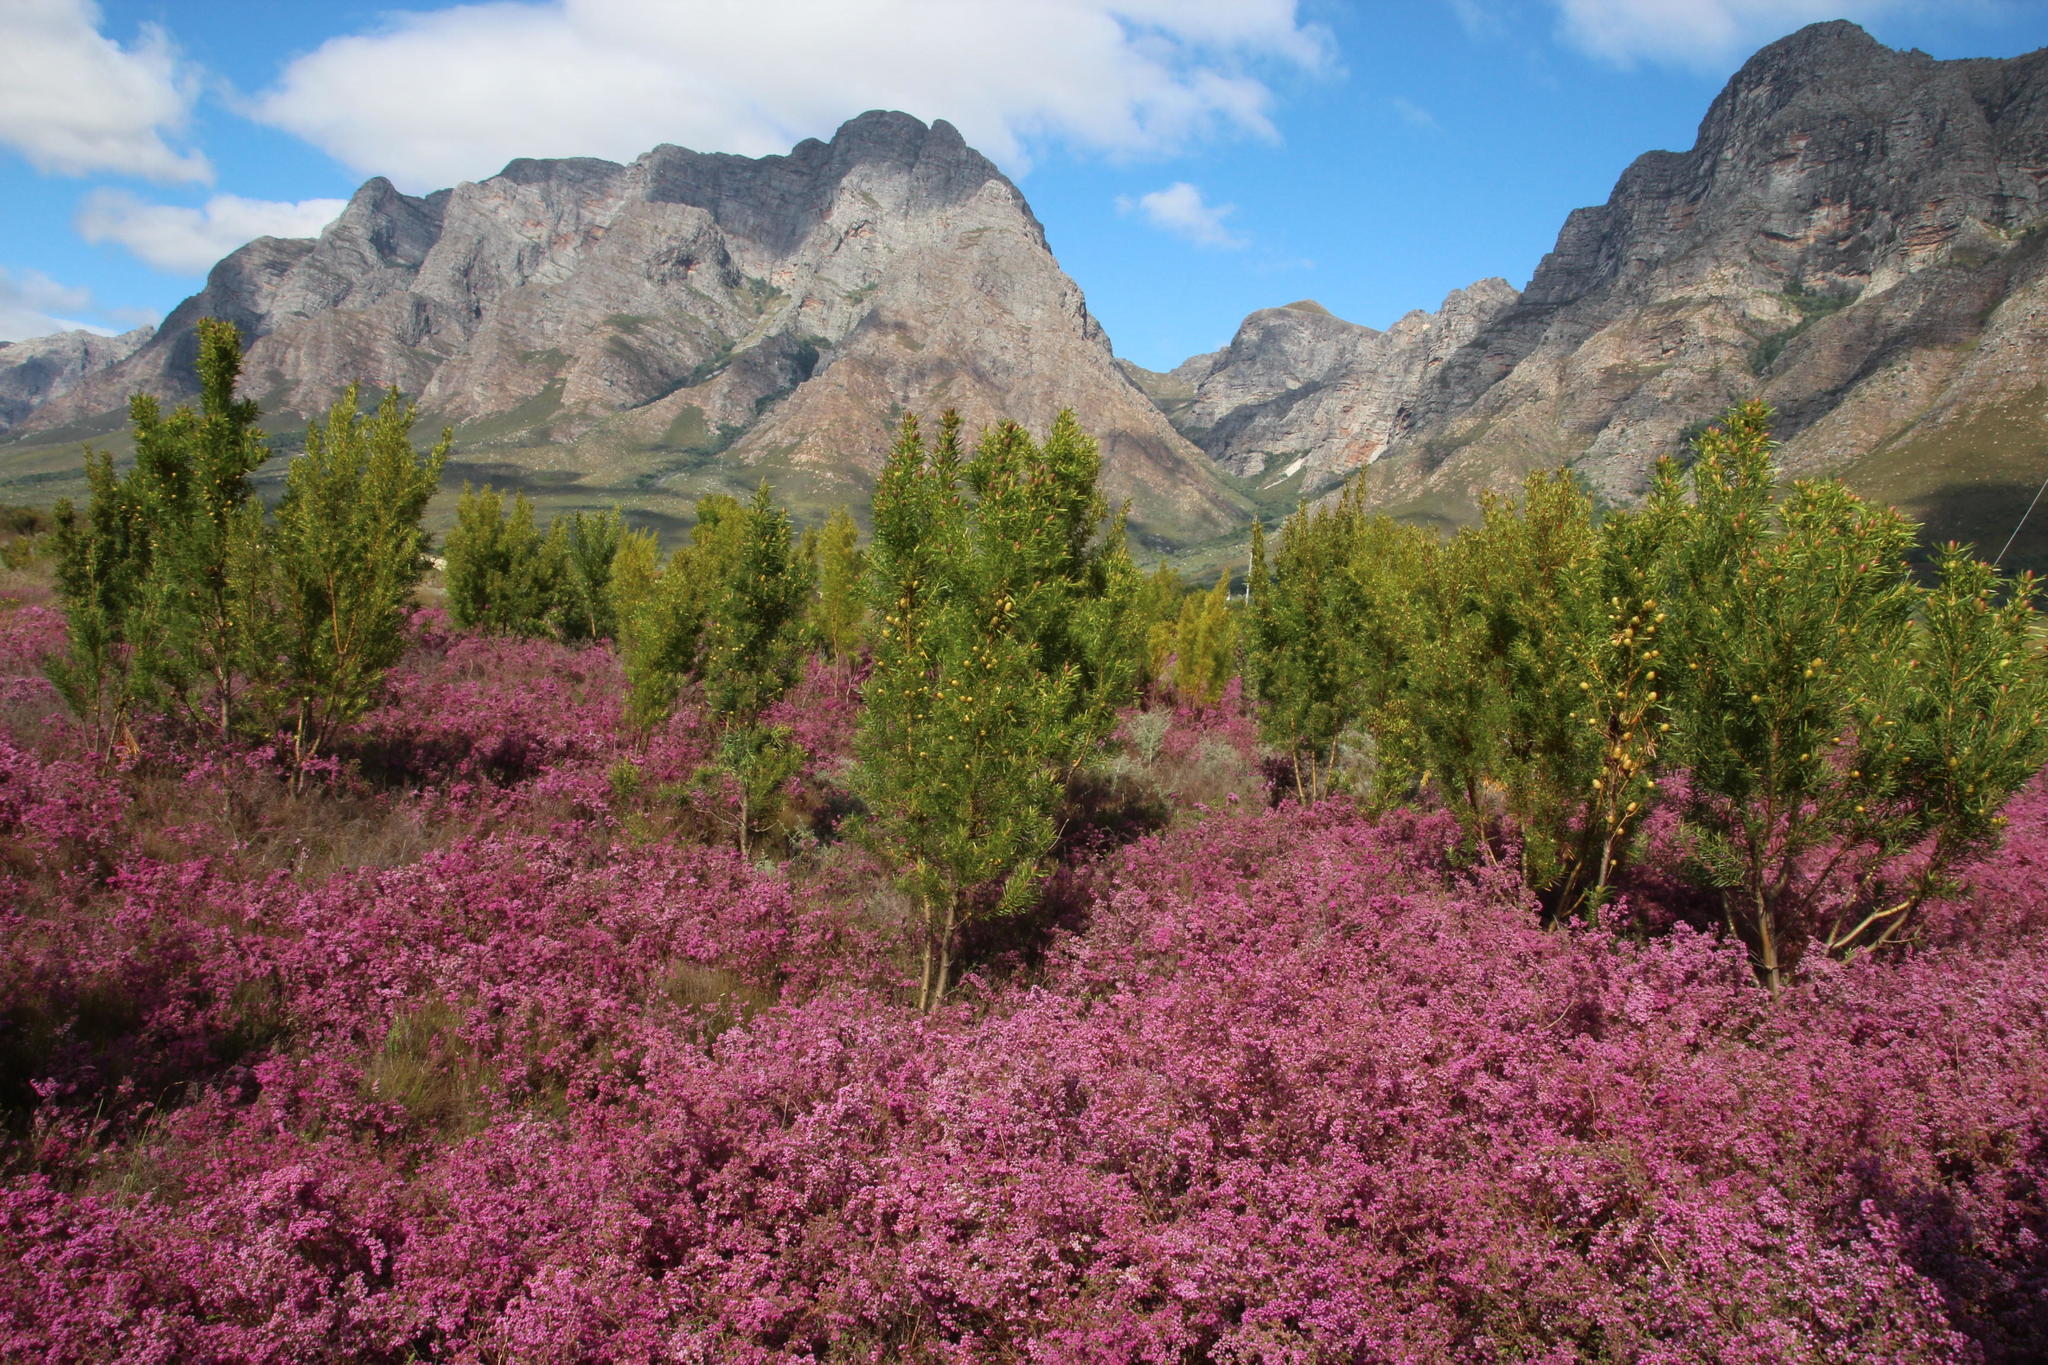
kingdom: Plantae
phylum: Tracheophyta
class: Magnoliopsida
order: Proteales
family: Proteaceae
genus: Leucadendron
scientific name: Leucadendron salicifolium
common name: Common stream conebush
